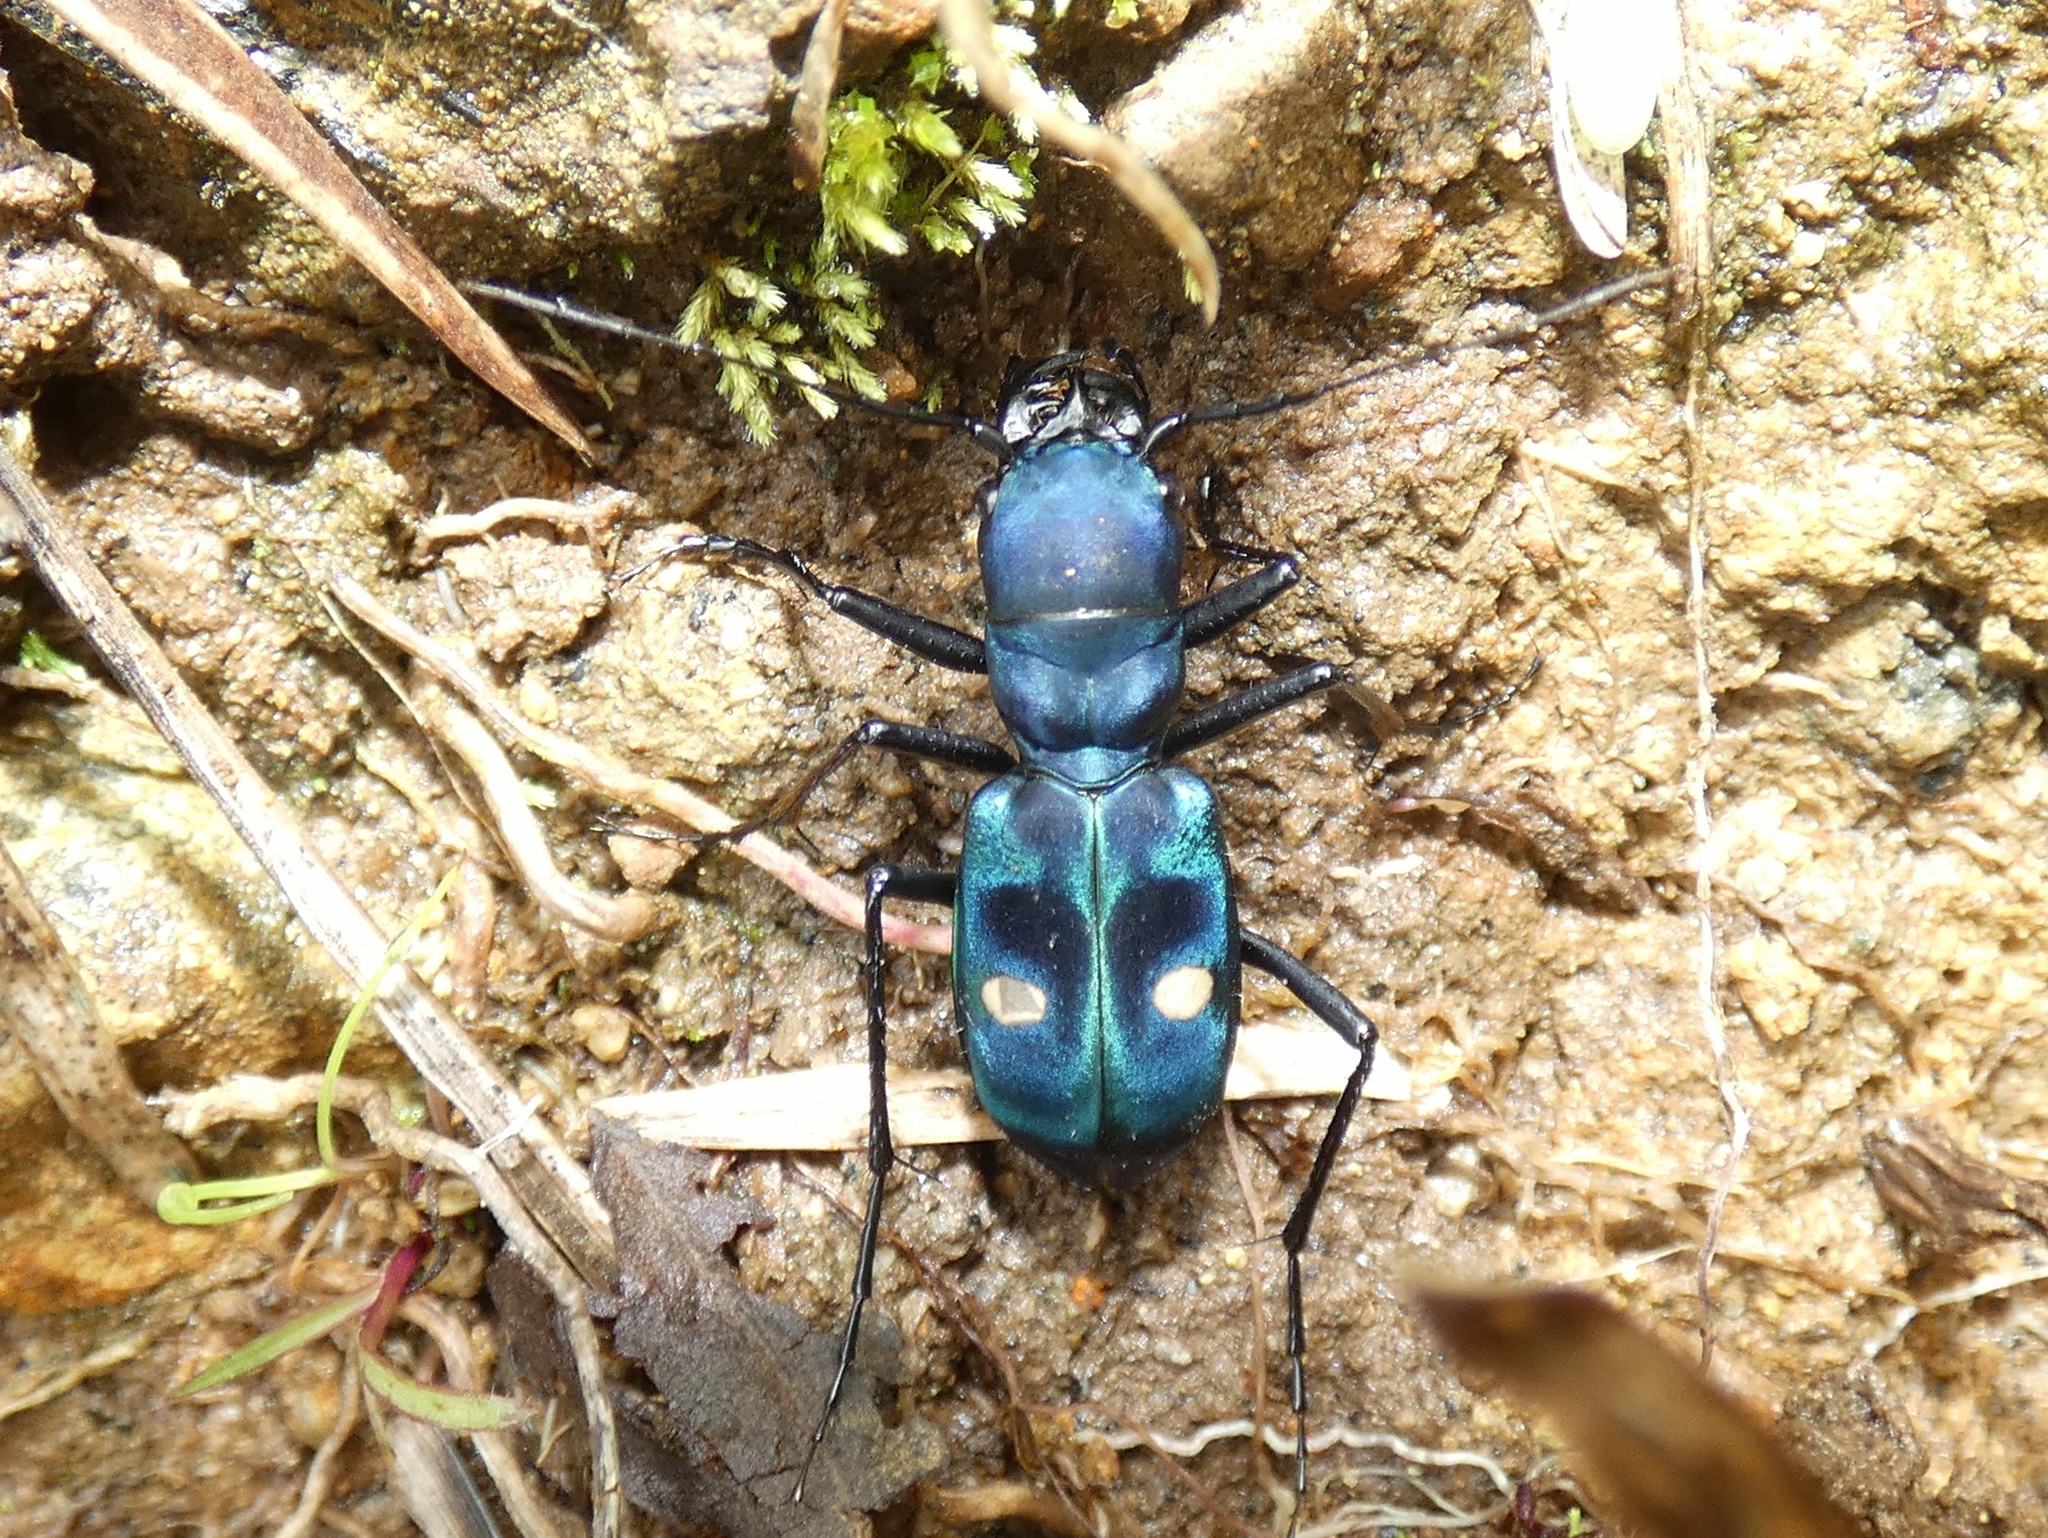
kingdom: Animalia
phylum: Arthropoda
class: Insecta
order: Coleoptera
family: Carabidae
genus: Pseudoxycheila
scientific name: Pseudoxycheila tarsalis
